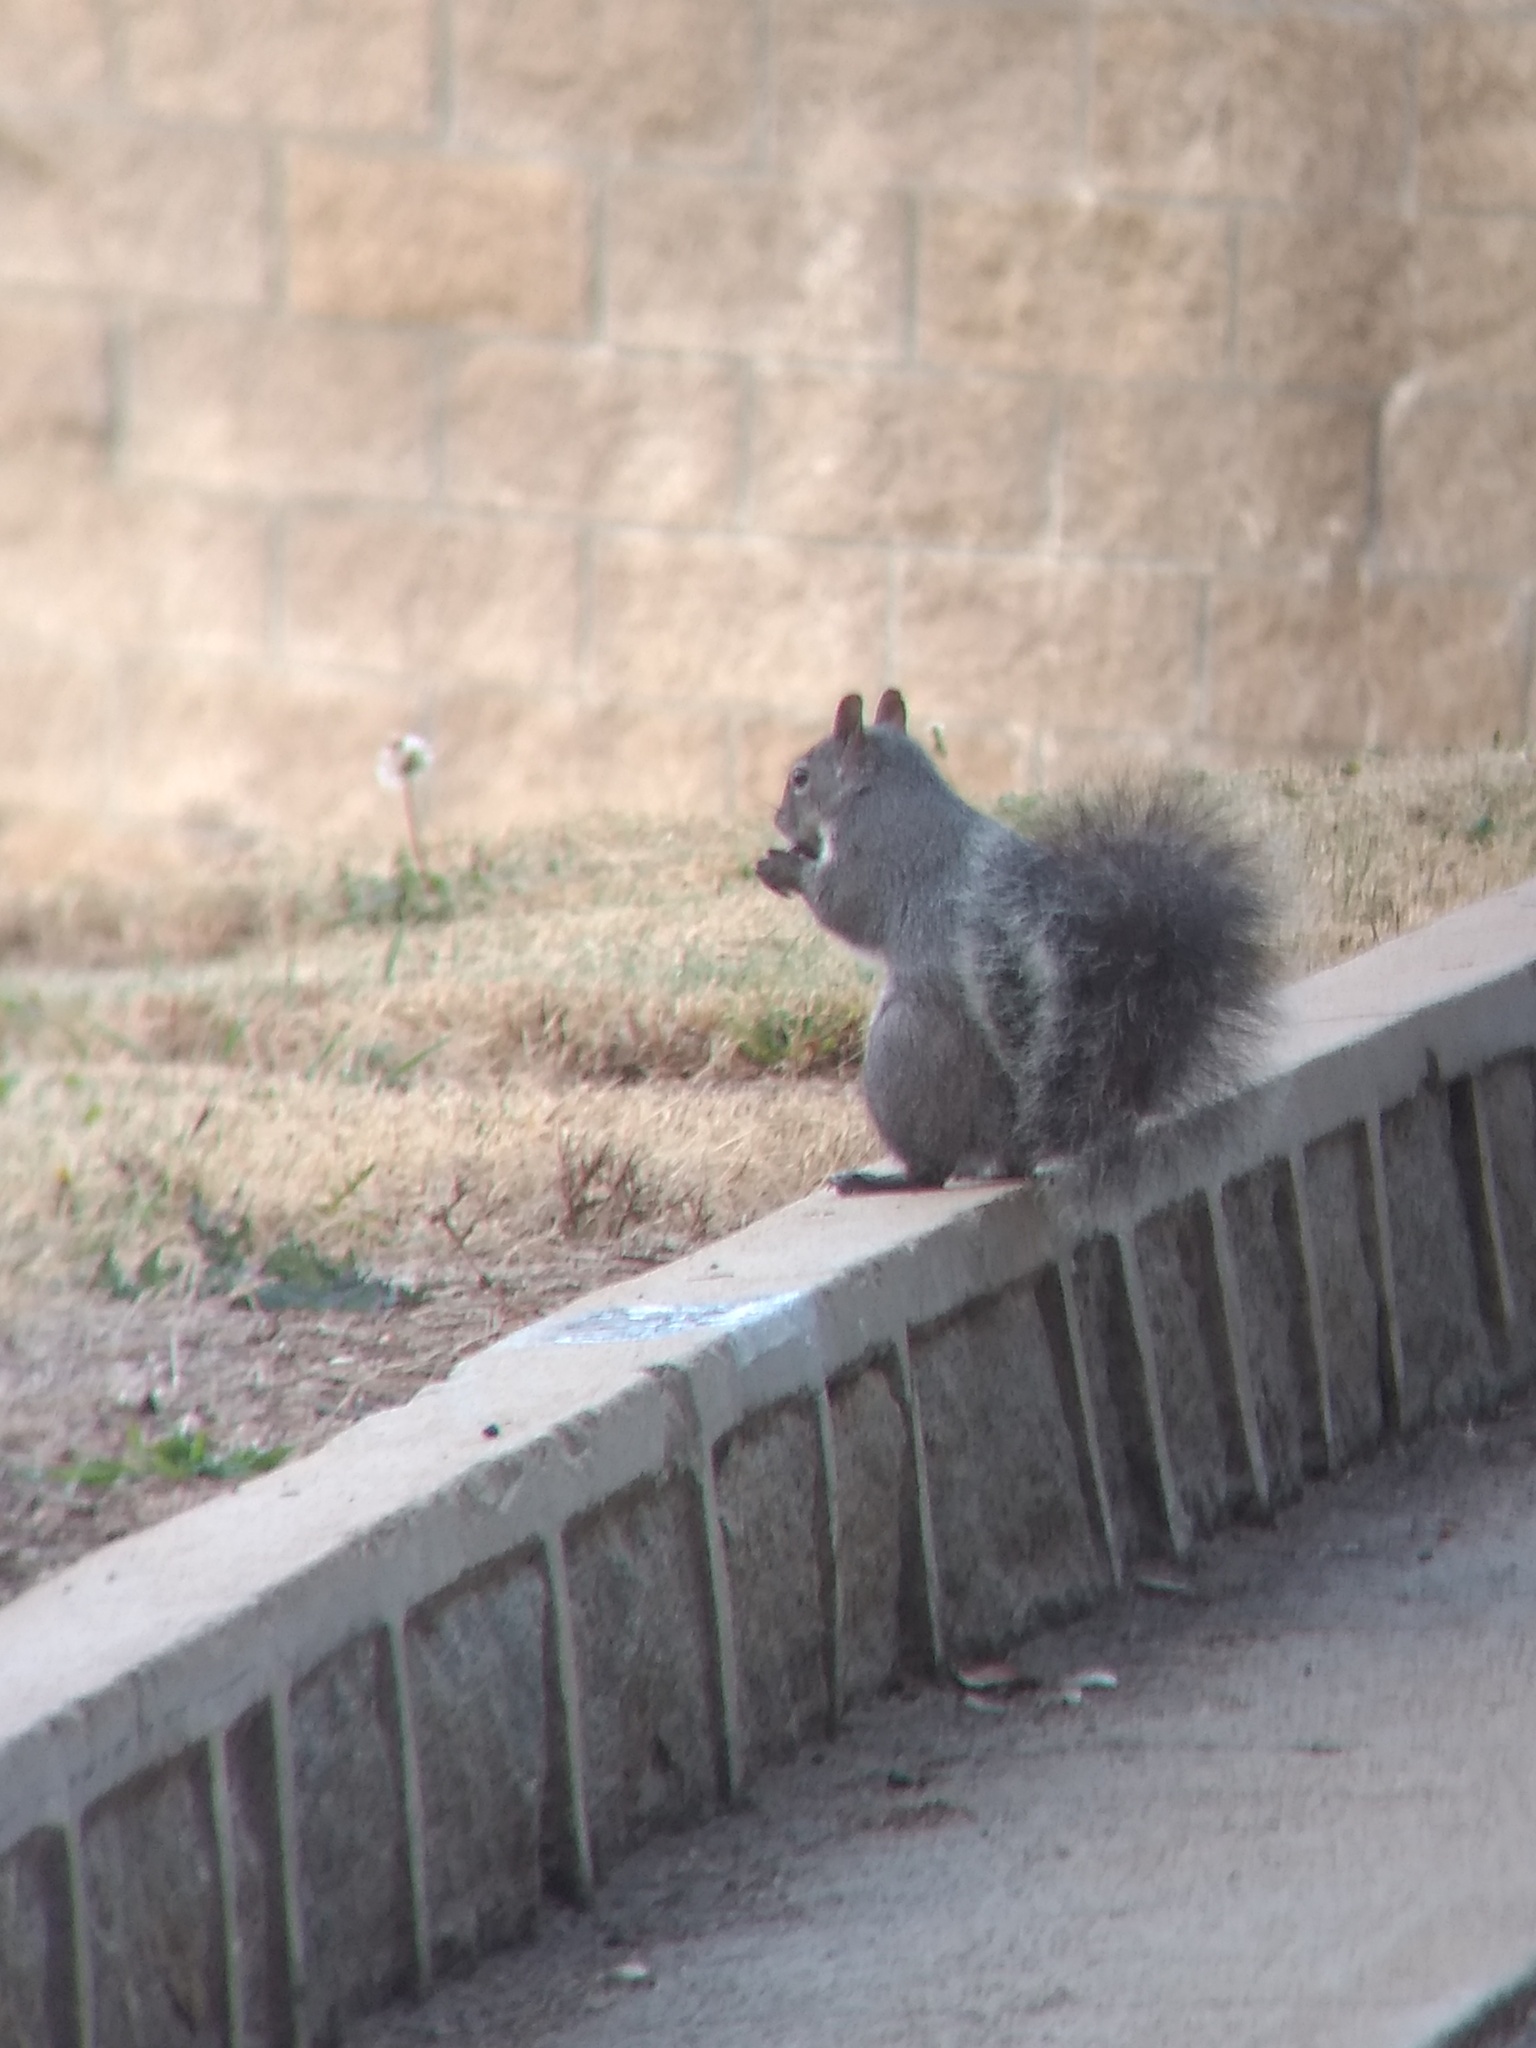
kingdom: Animalia
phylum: Chordata
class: Mammalia
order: Rodentia
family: Sciuridae
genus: Sciurus
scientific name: Sciurus griseus
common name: Western gray squirrel
